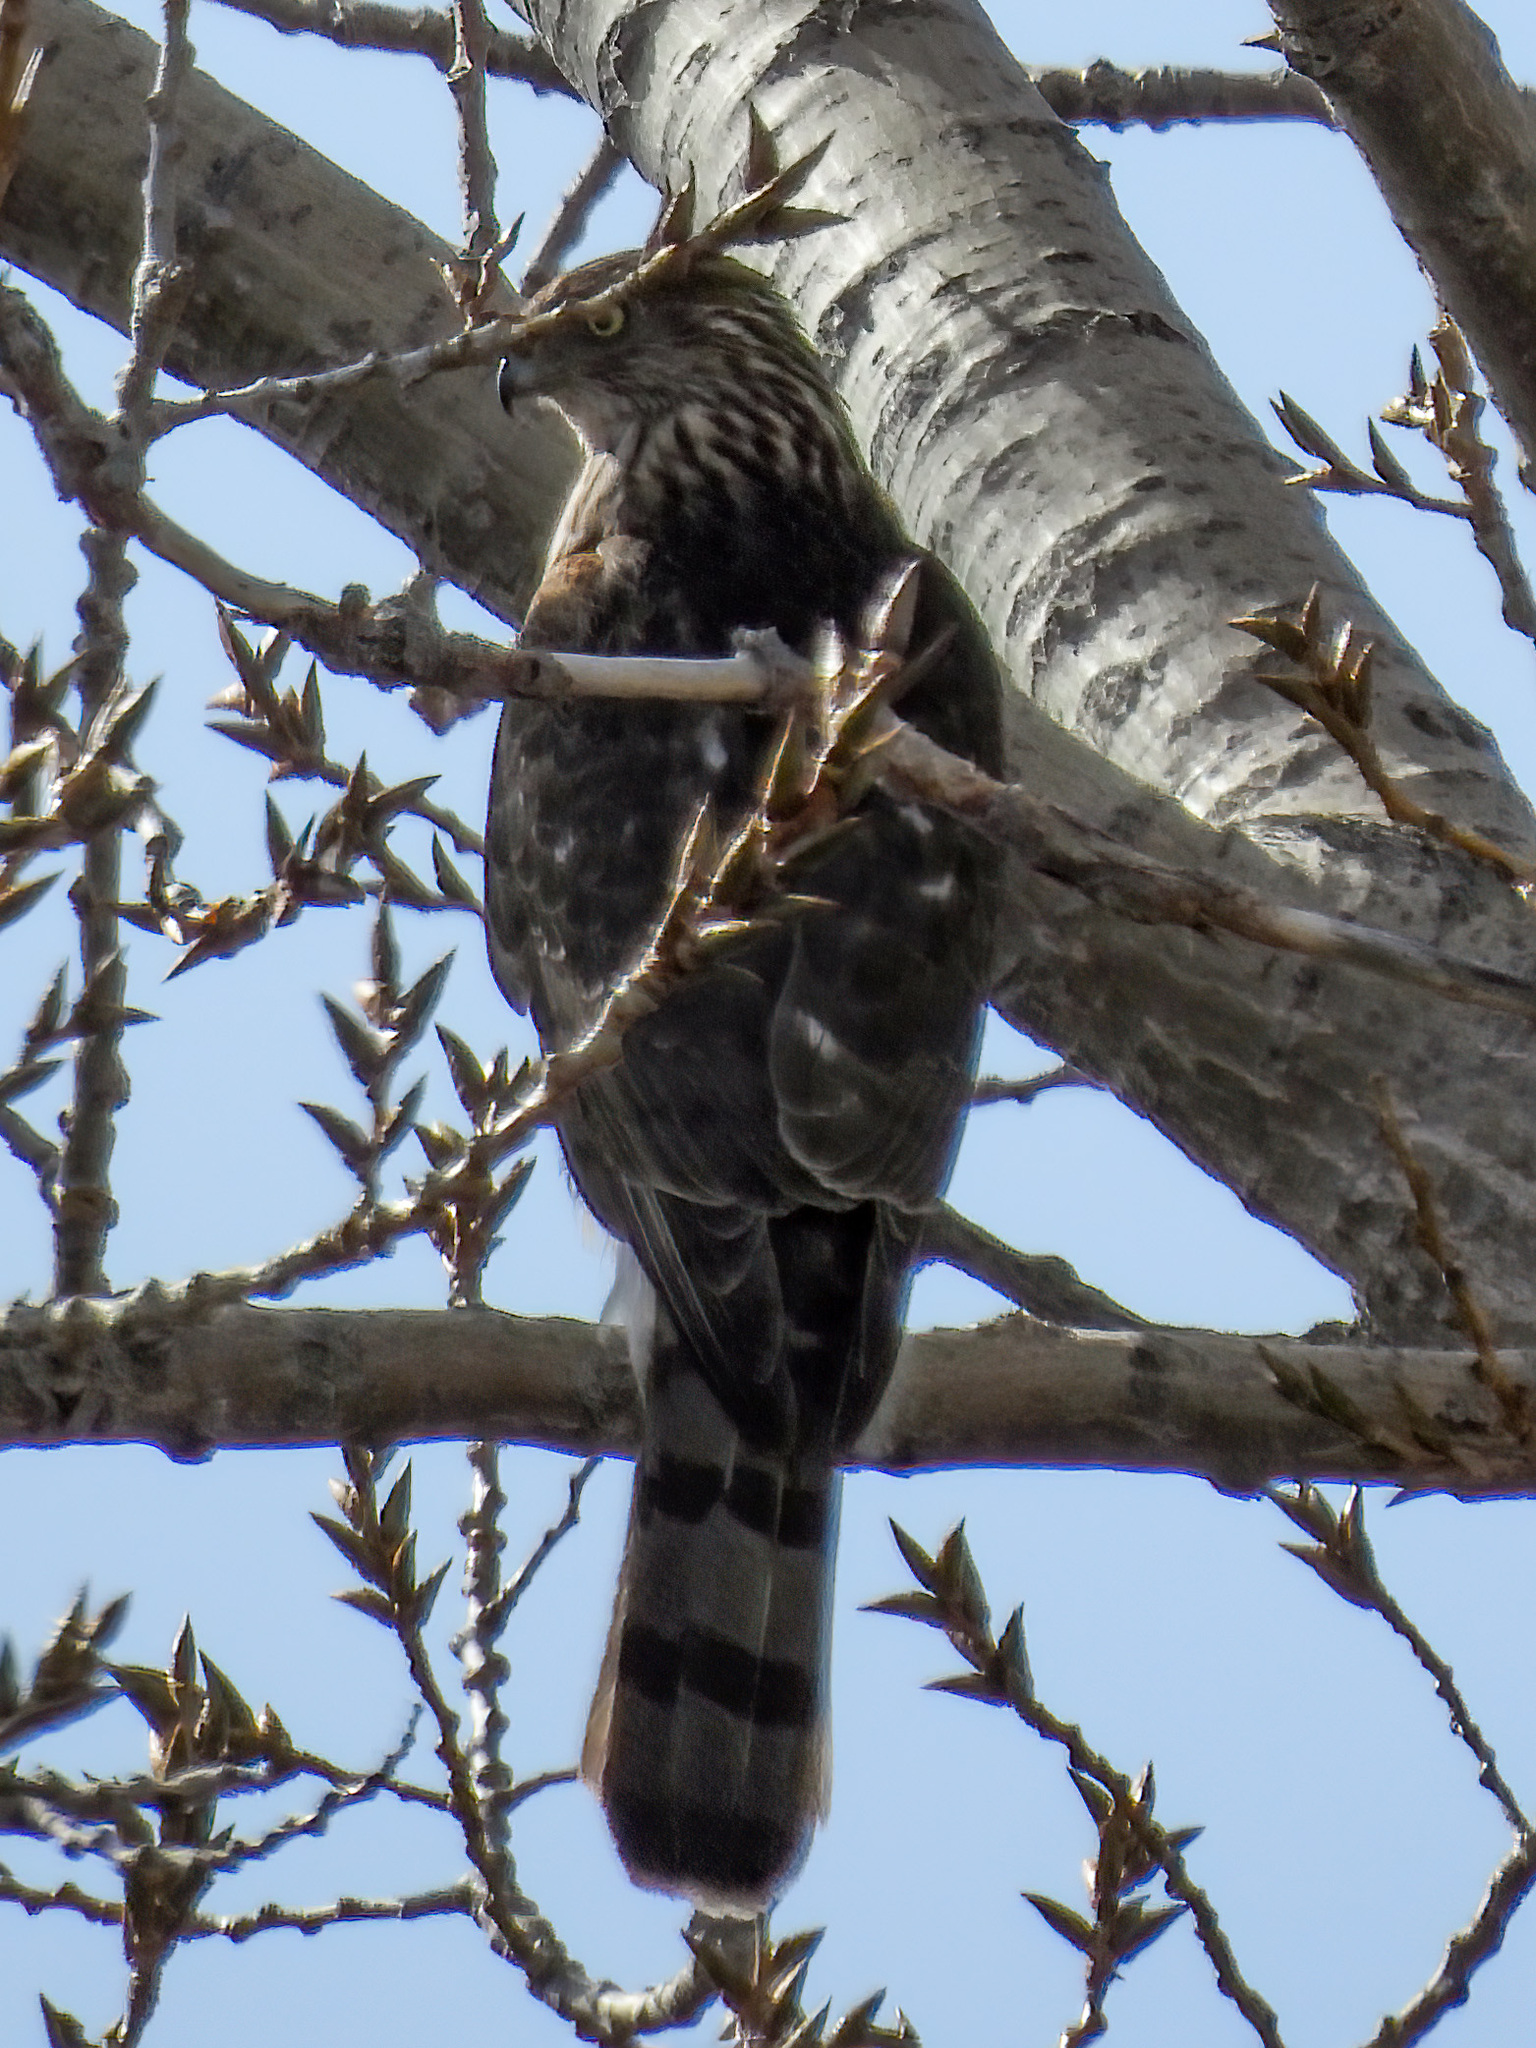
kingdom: Animalia
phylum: Chordata
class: Aves
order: Accipitriformes
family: Accipitridae
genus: Accipiter
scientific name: Accipiter cooperii
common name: Cooper's hawk
